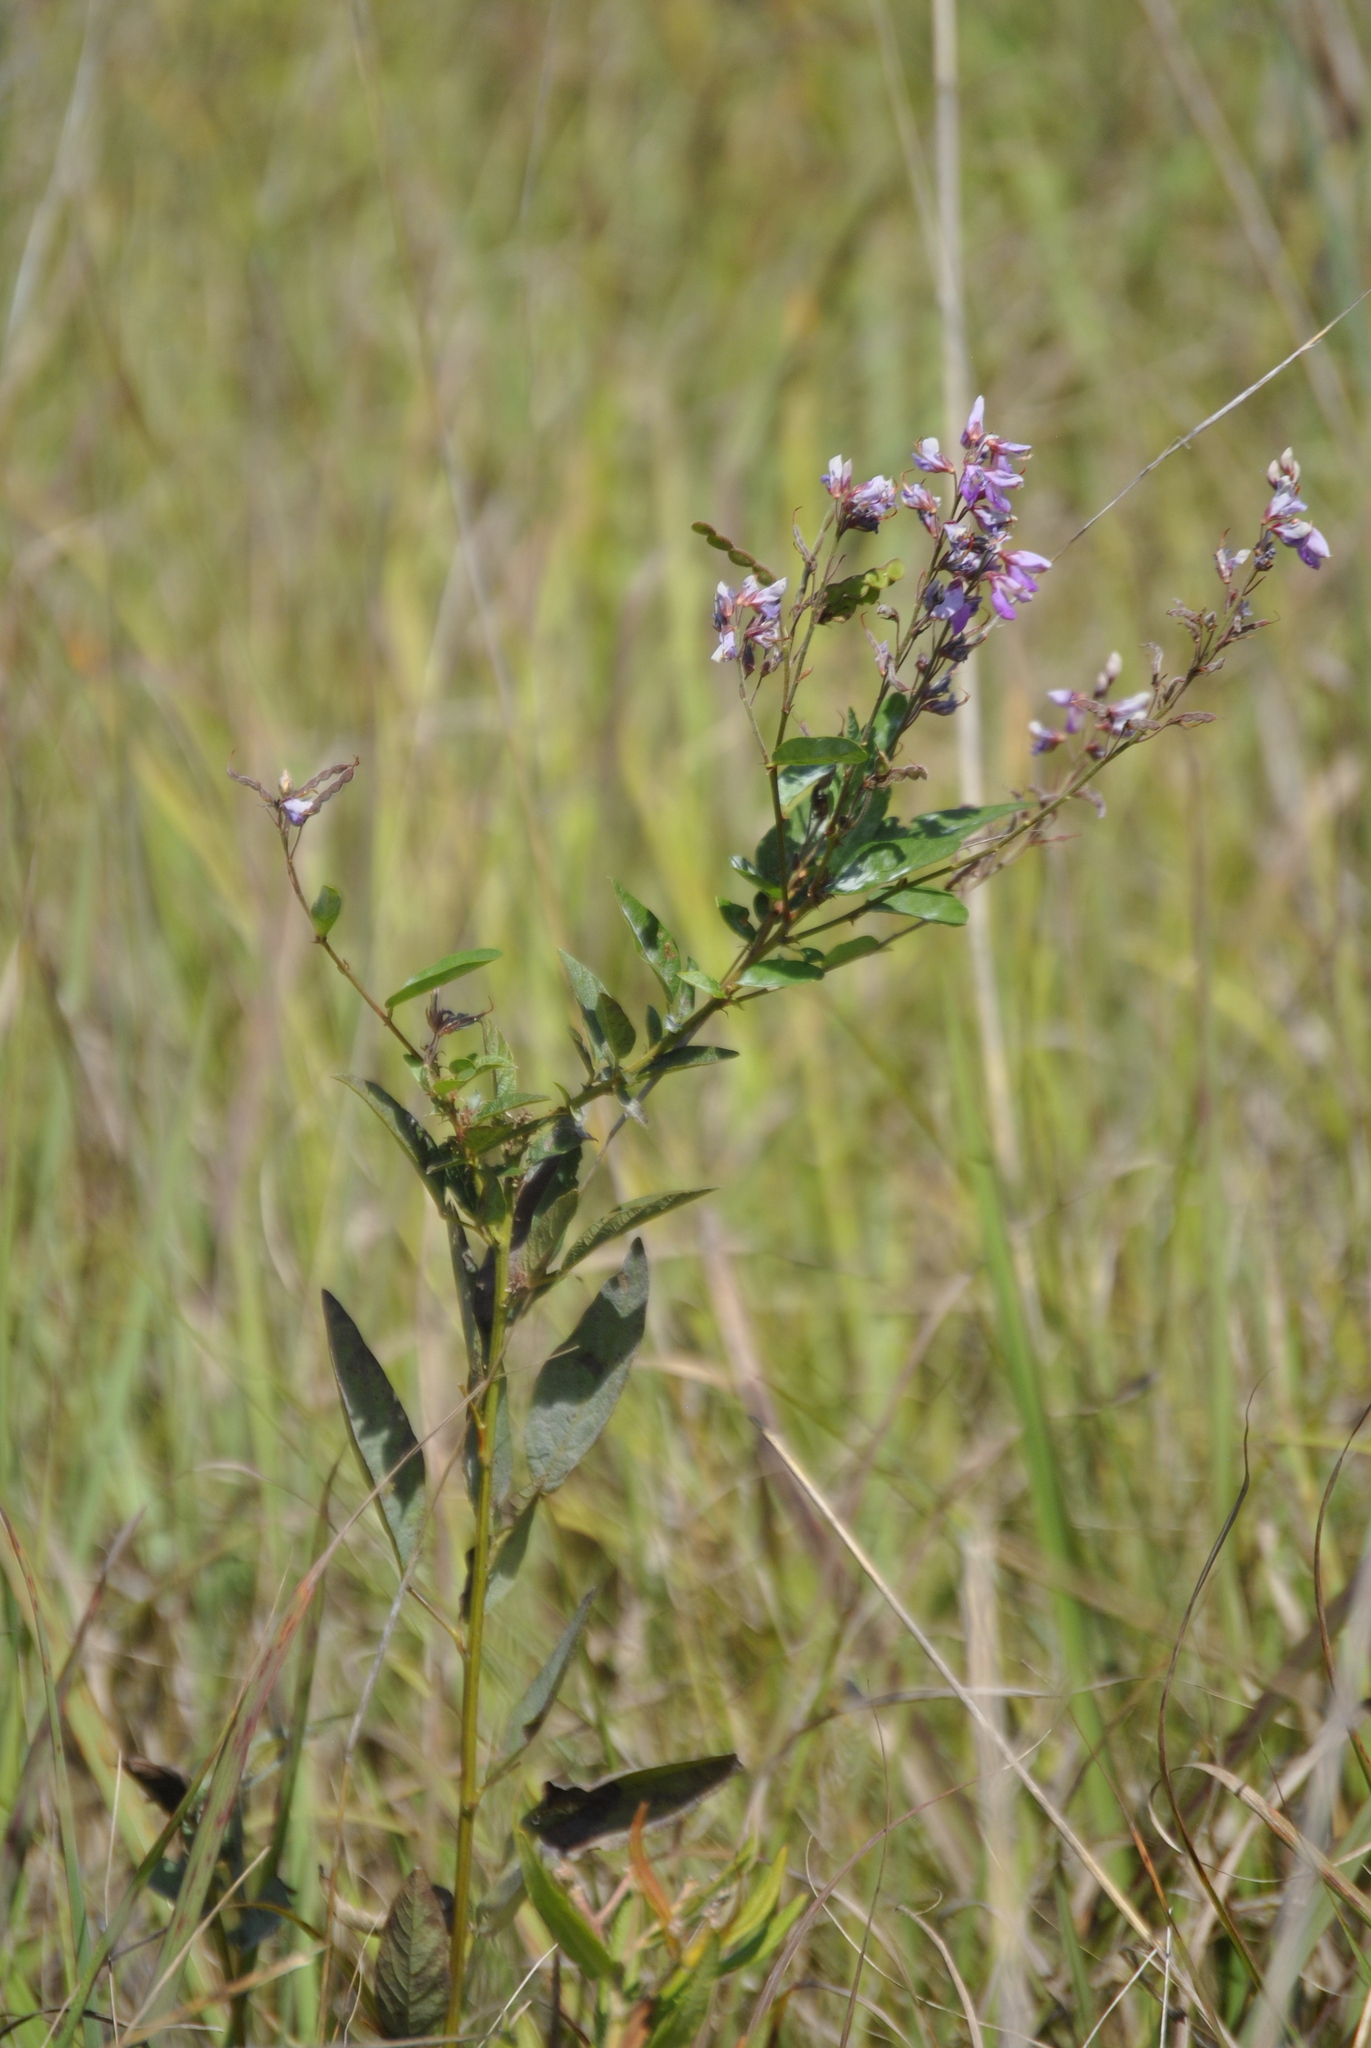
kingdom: Plantae
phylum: Tracheophyta
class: Magnoliopsida
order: Fabales
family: Fabaceae
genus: Desmodium
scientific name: Desmodium canadense
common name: Canada tick-trefoil
